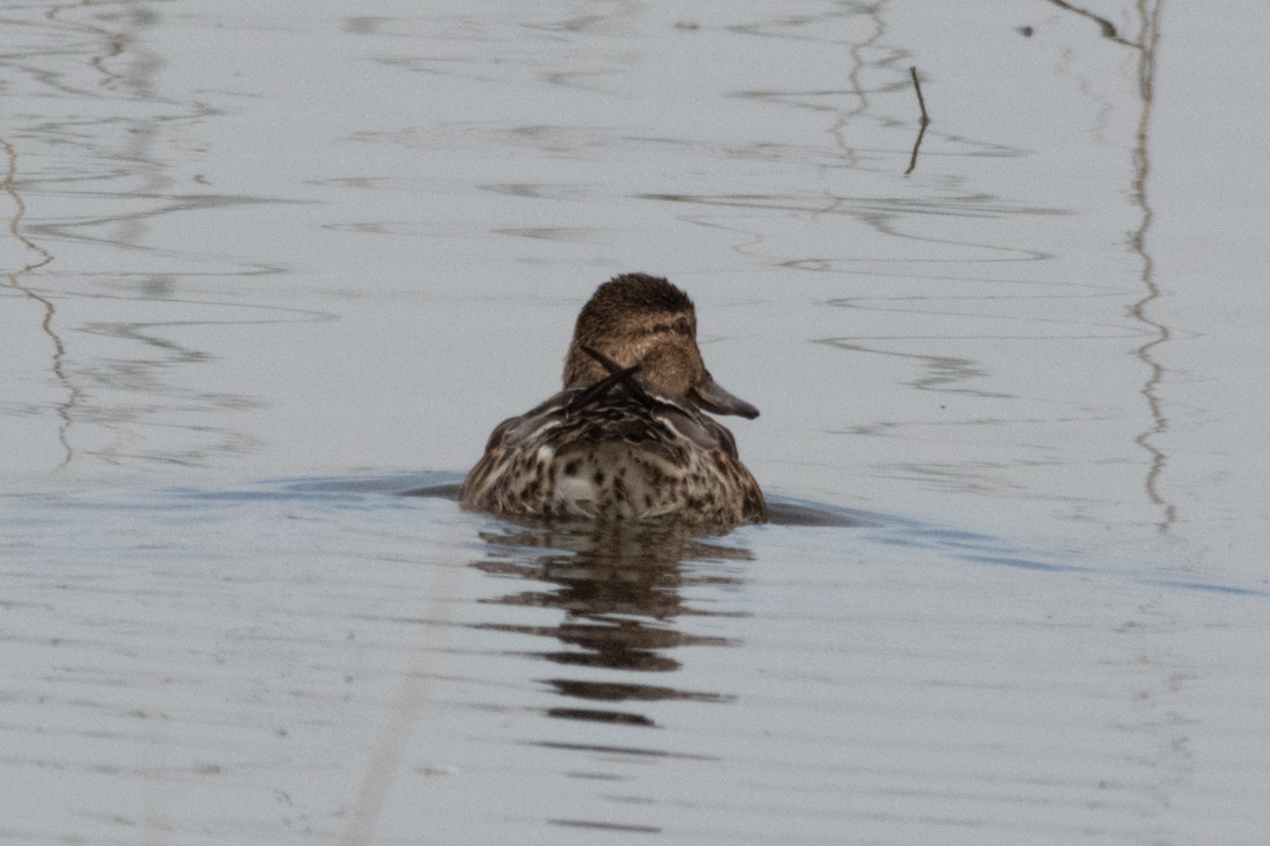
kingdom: Animalia
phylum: Chordata
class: Aves
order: Anseriformes
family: Anatidae
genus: Anas
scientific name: Anas crecca
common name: Eurasian teal
